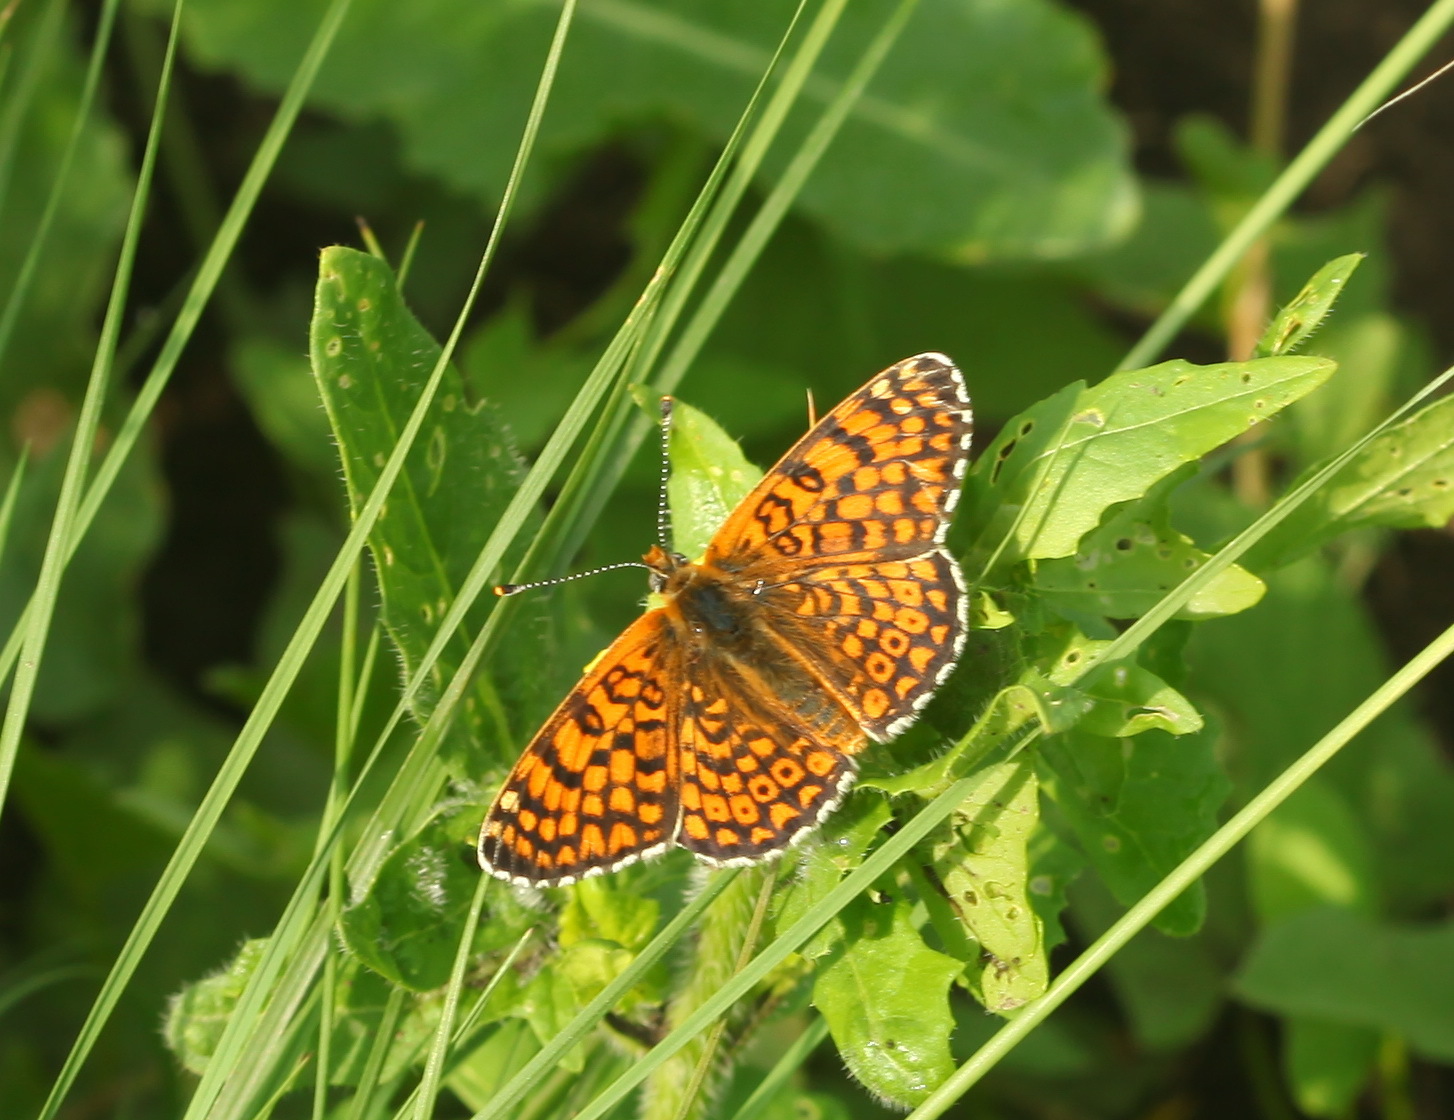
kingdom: Animalia
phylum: Arthropoda
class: Insecta
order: Lepidoptera
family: Nymphalidae
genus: Melitaea
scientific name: Melitaea cinxia
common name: Glanville fritillary
